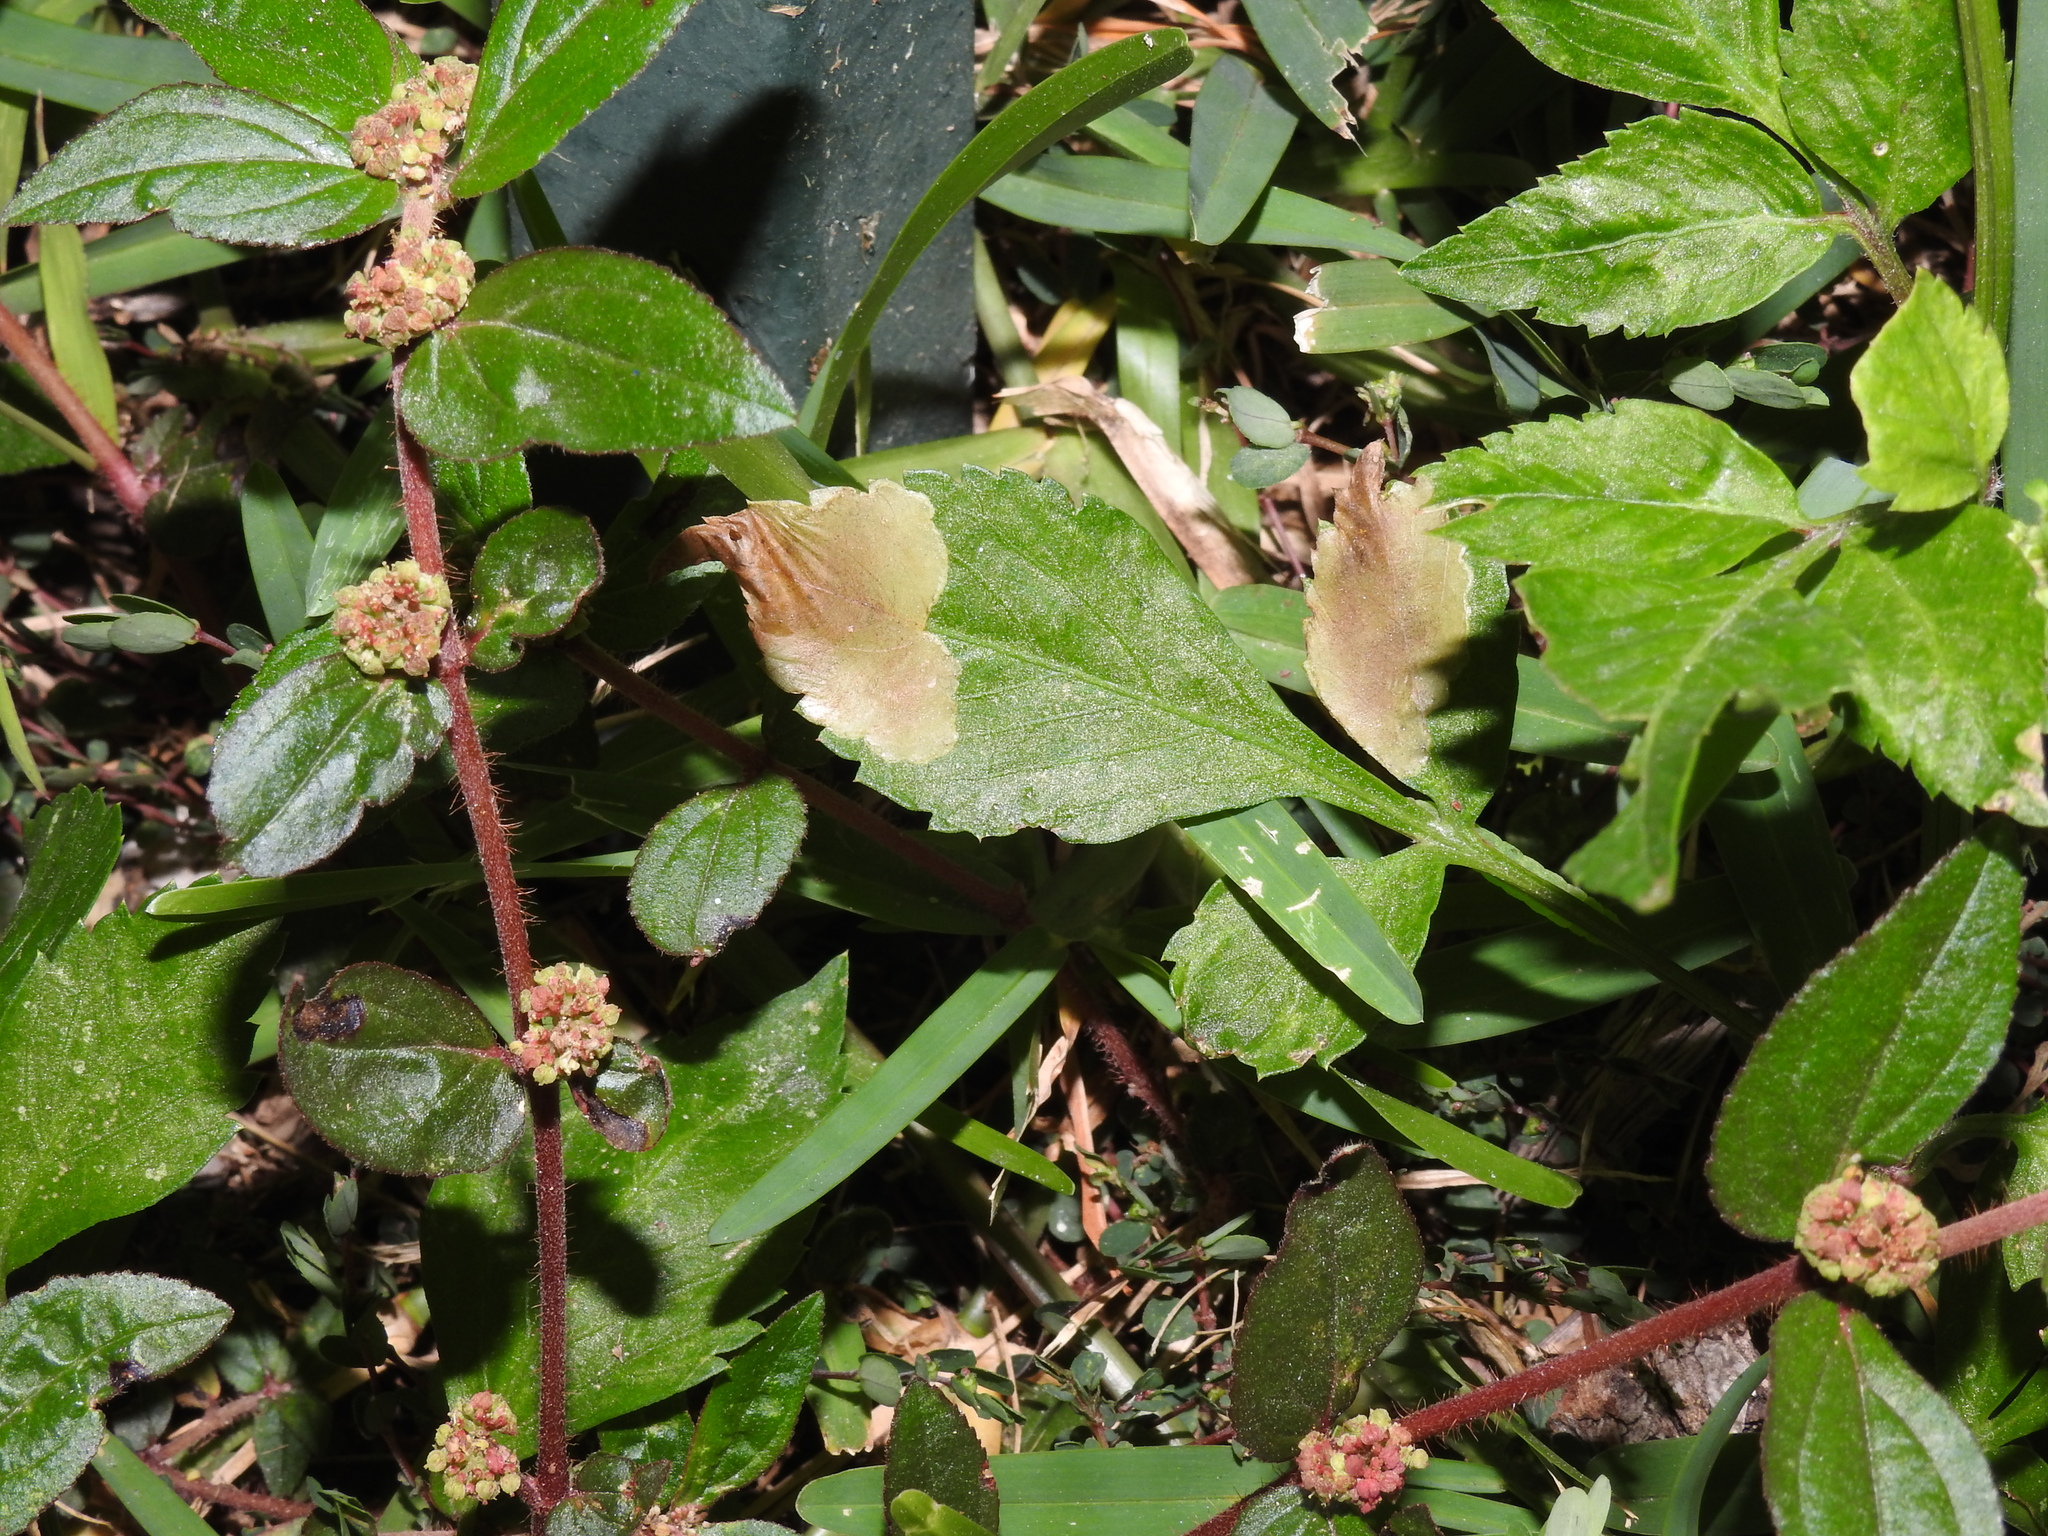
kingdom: Animalia
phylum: Arthropoda
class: Insecta
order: Diptera
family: Agromyzidae
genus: Nemorimyza
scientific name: Nemorimyza maculosa
